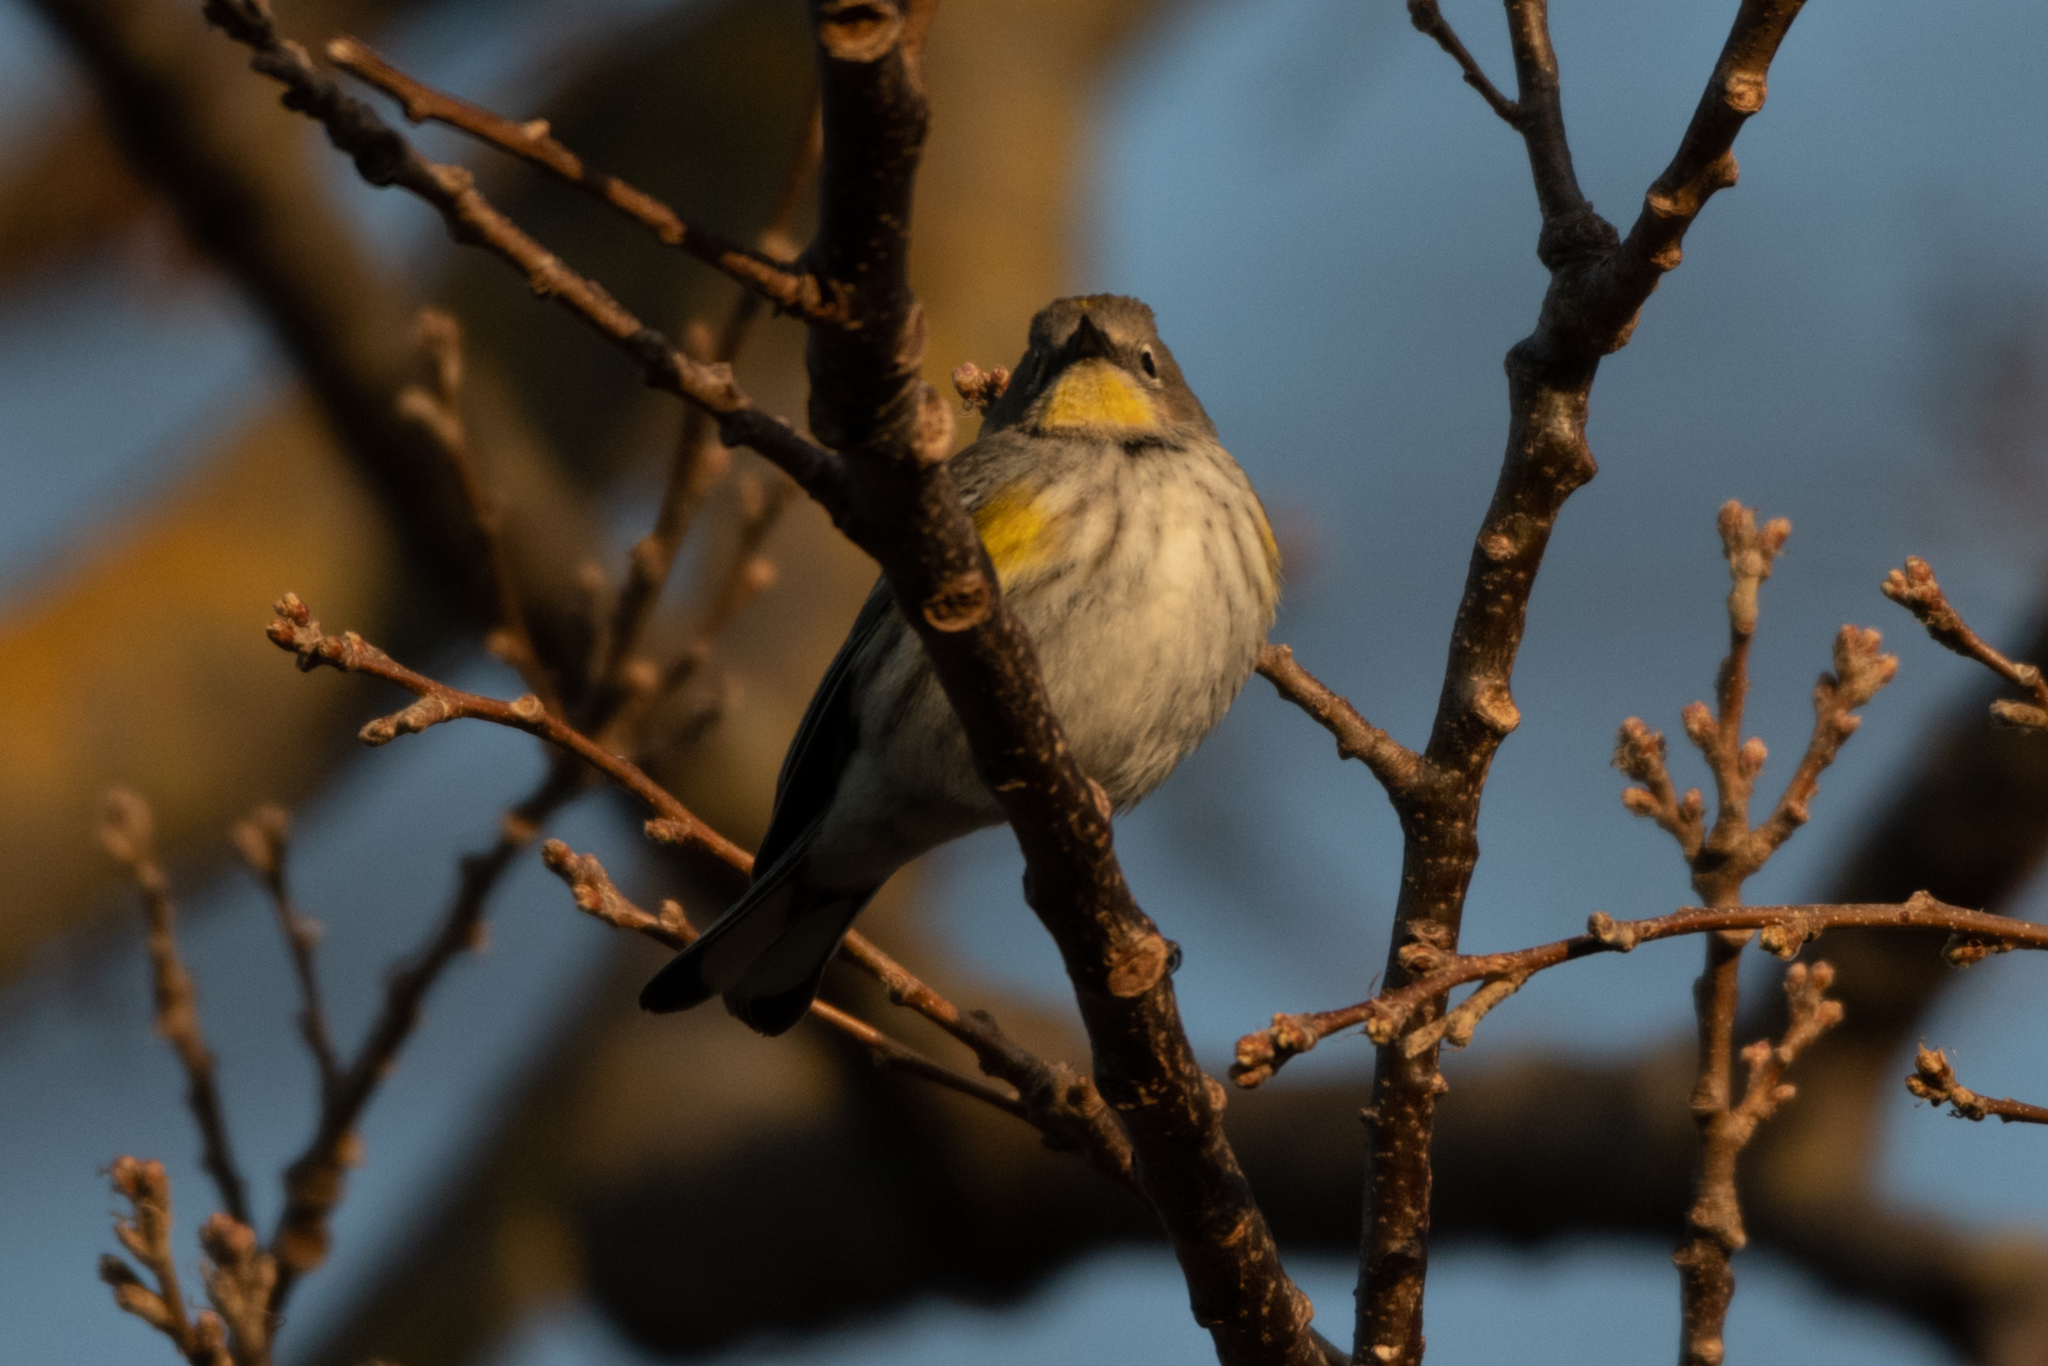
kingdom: Animalia
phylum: Chordata
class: Aves
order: Passeriformes
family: Parulidae
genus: Setophaga
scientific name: Setophaga coronata
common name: Myrtle warbler
